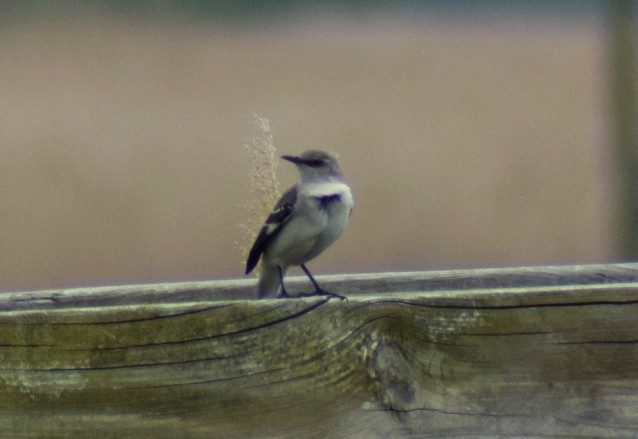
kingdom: Animalia
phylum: Chordata
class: Aves
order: Passeriformes
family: Mimidae
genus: Mimus
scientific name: Mimus polyglottos
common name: Northern mockingbird
